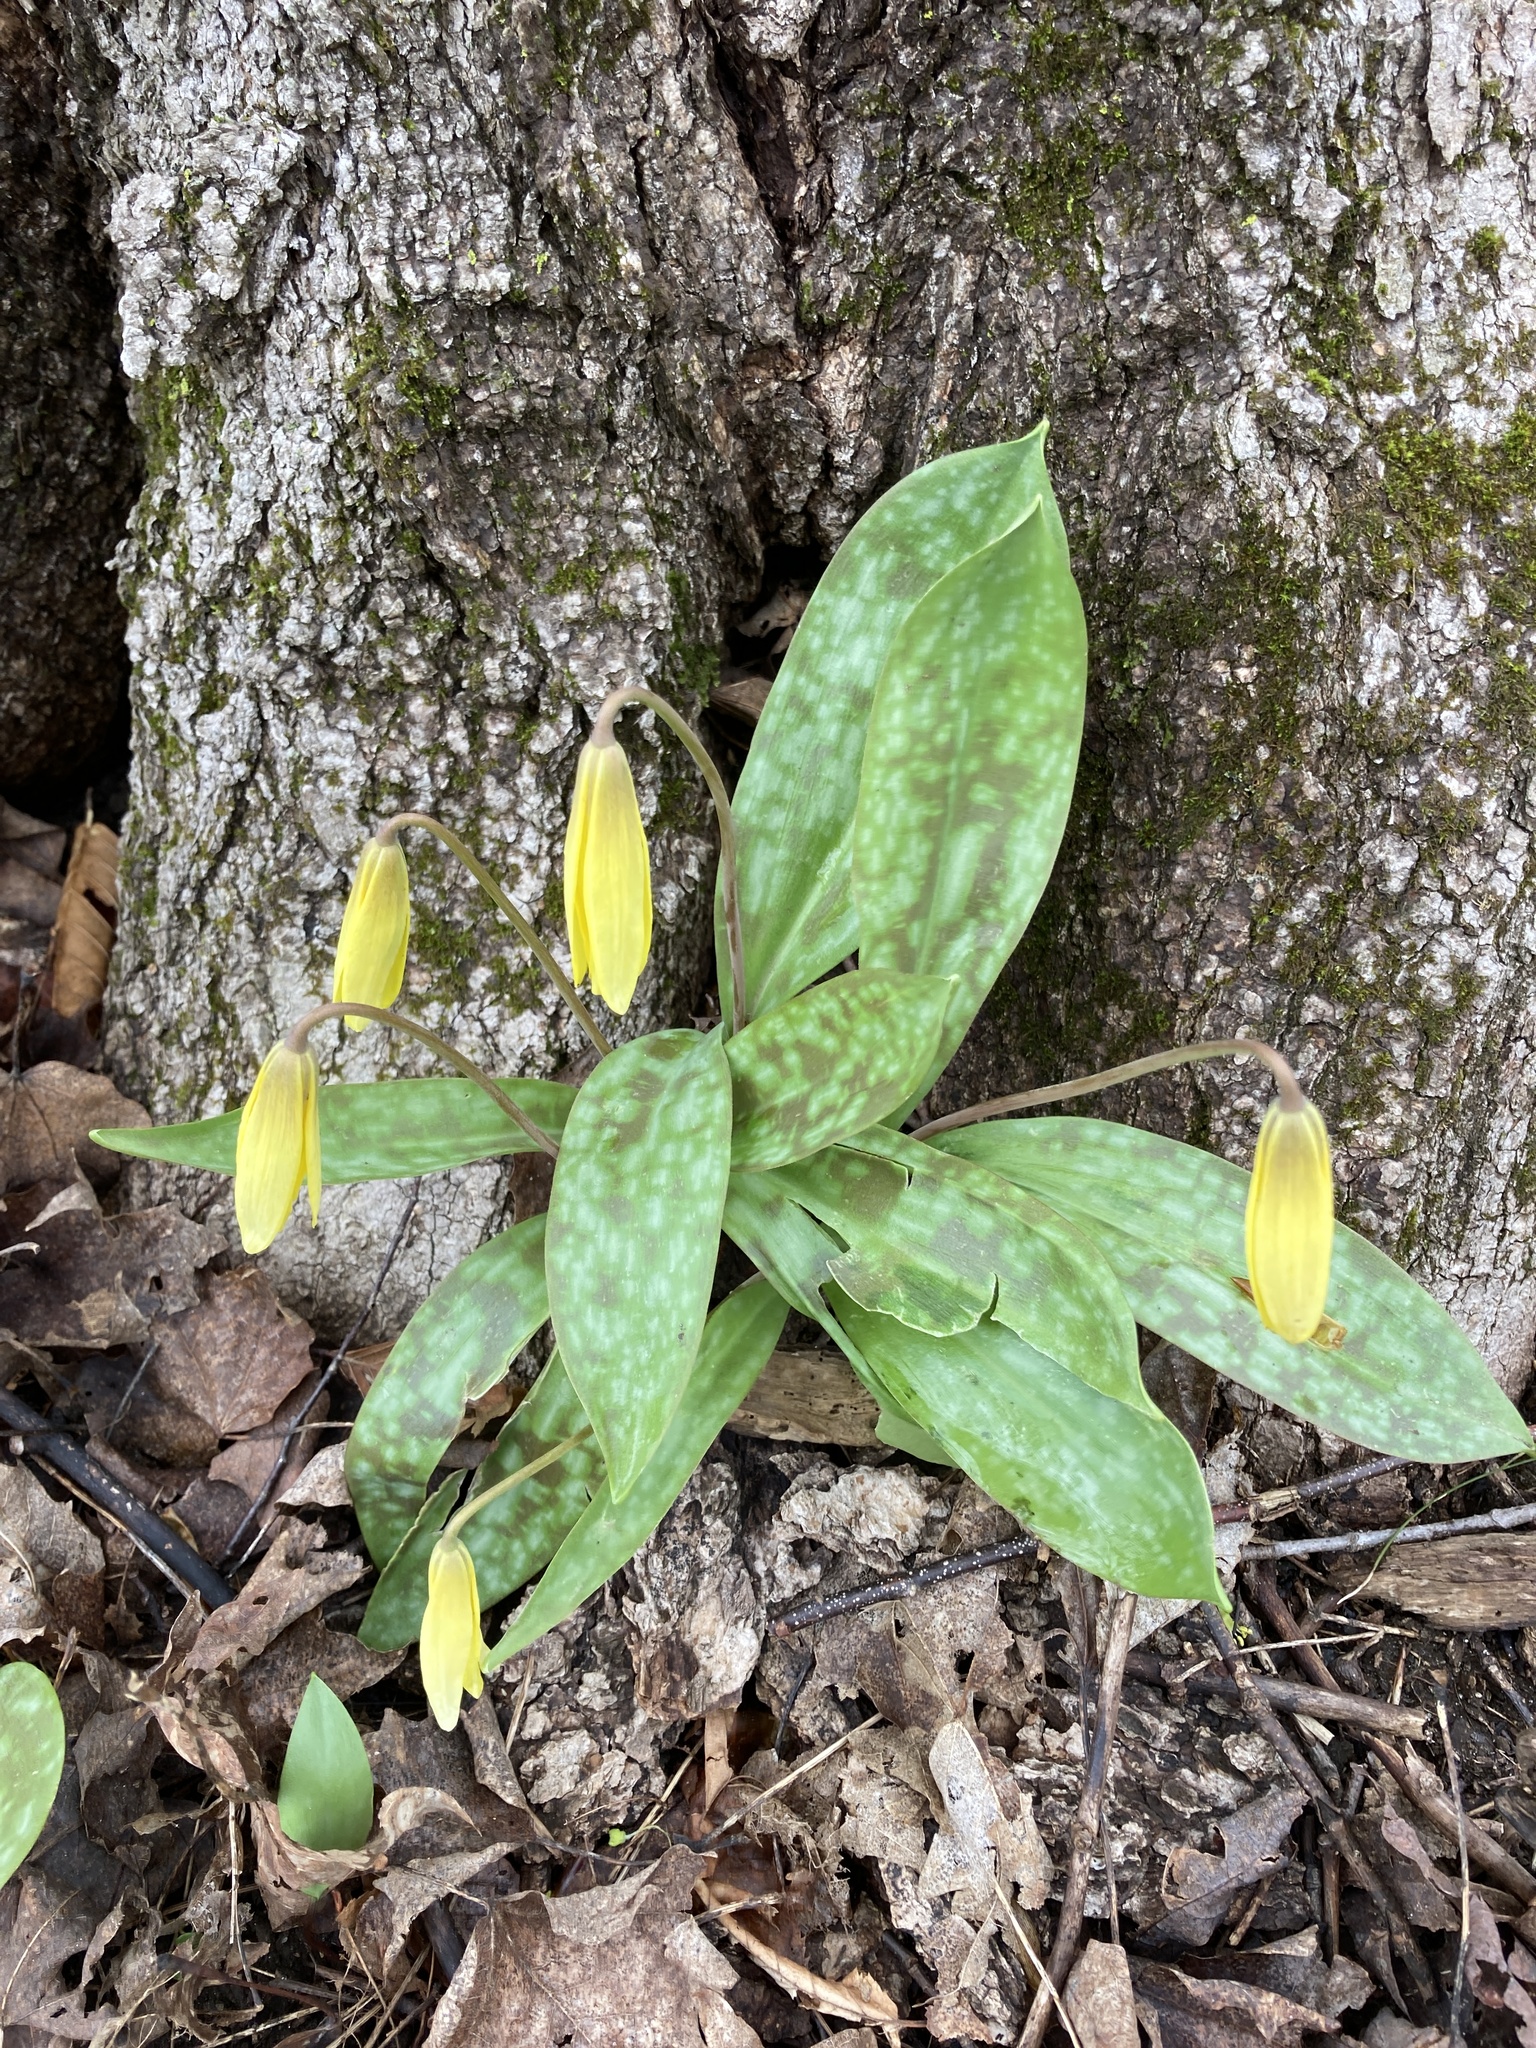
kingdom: Plantae
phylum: Tracheophyta
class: Liliopsida
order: Liliales
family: Liliaceae
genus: Erythronium
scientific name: Erythronium americanum
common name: Yellow adder's-tongue
